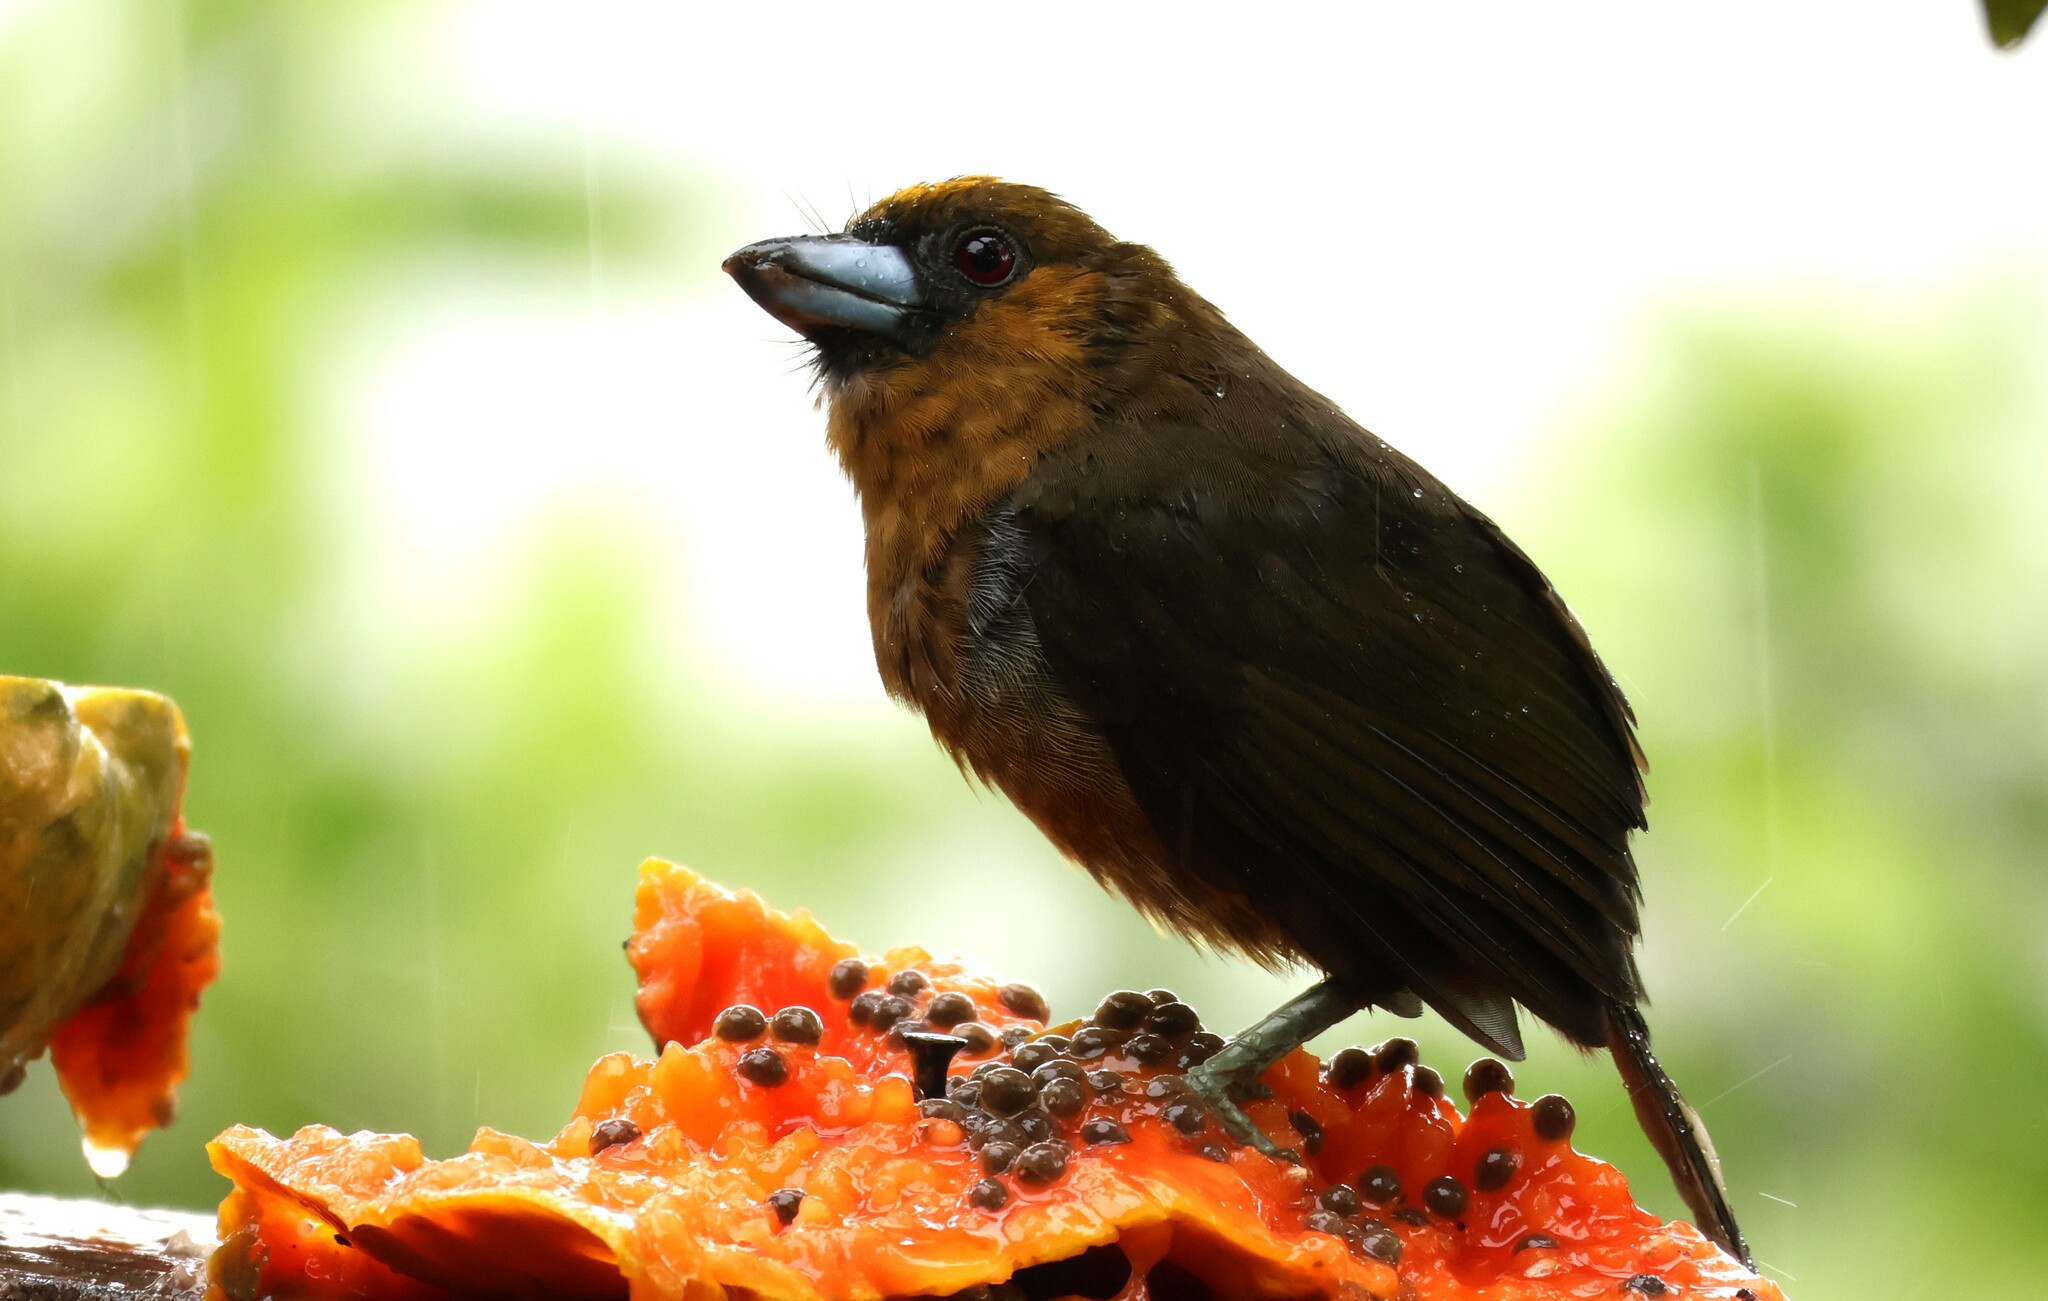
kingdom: Animalia
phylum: Chordata
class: Aves
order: Piciformes
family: Semnornithidae
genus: Semnornis
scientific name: Semnornis frantzii
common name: Prong-billed barbet
